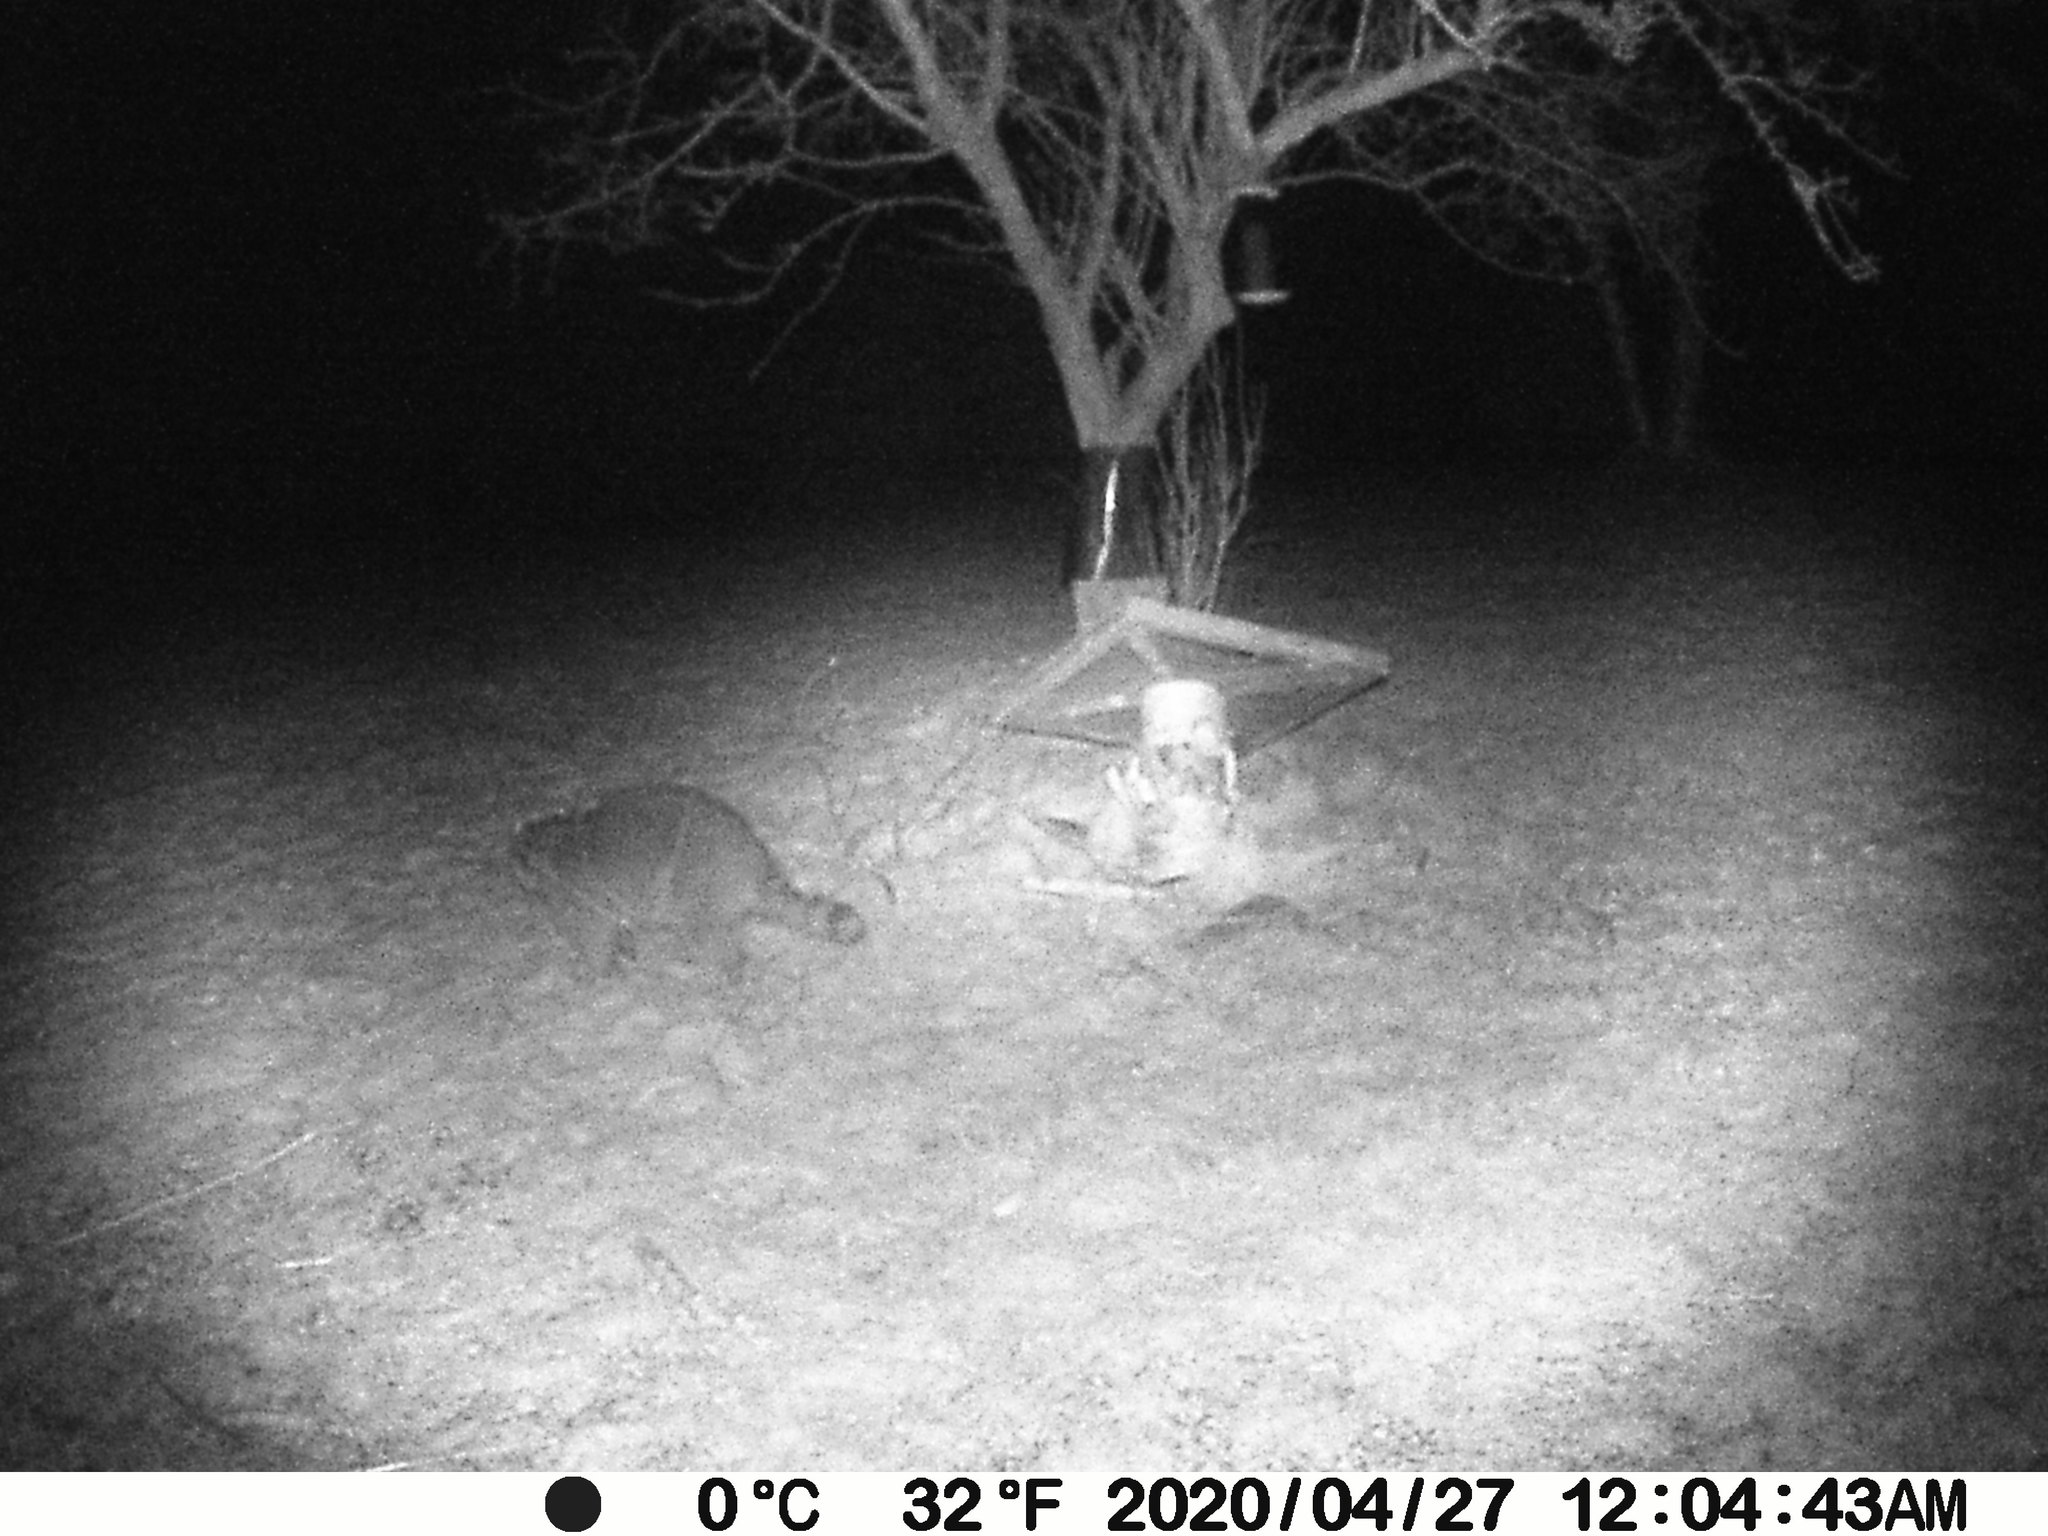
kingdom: Animalia
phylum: Chordata
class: Mammalia
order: Carnivora
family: Procyonidae
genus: Procyon
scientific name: Procyon lotor
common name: Raccoon
